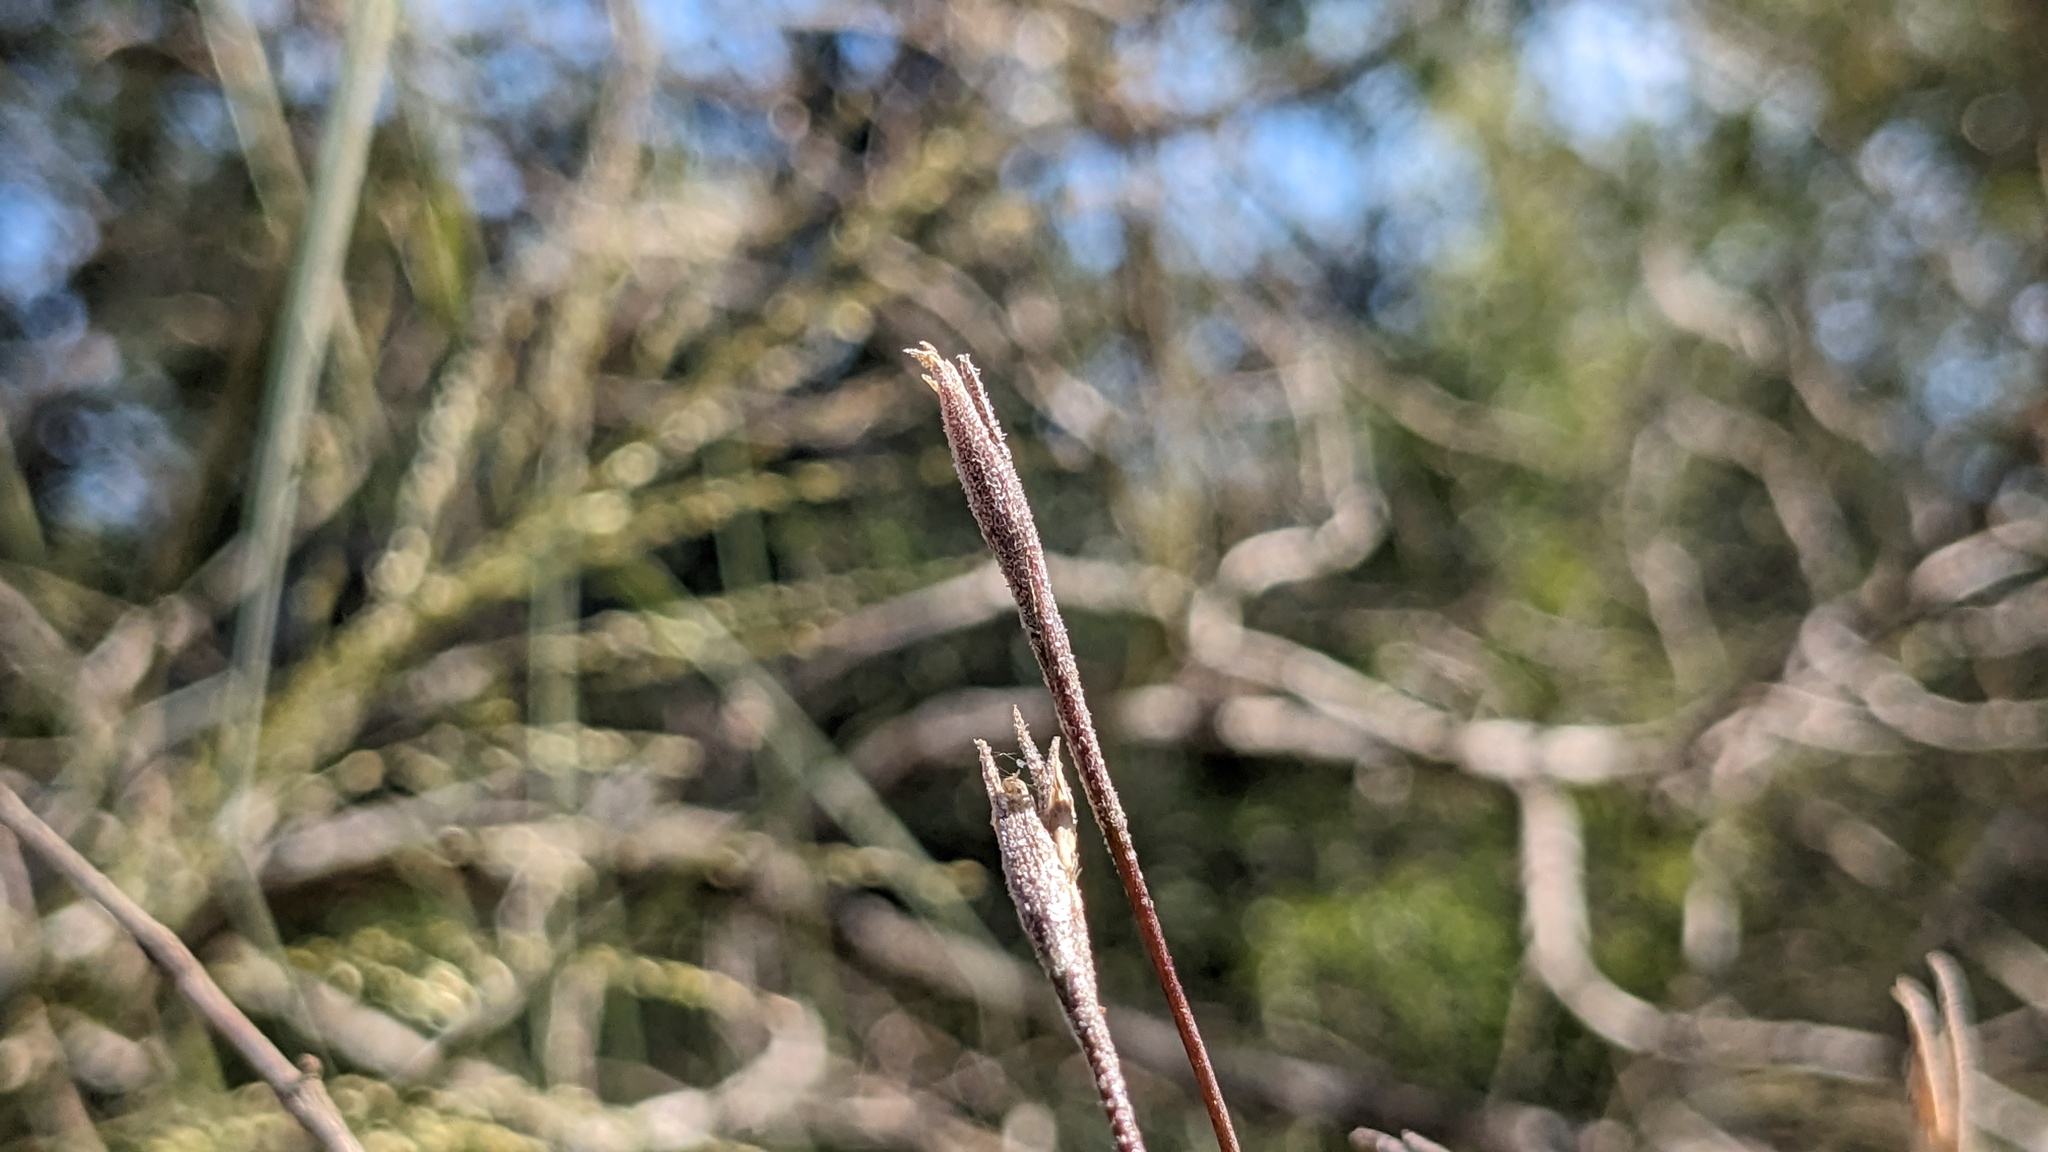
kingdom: Plantae
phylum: Tracheophyta
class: Liliopsida
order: Poales
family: Bromeliaceae
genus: Tillandsia
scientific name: Tillandsia recurvata
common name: Small ballmoss
